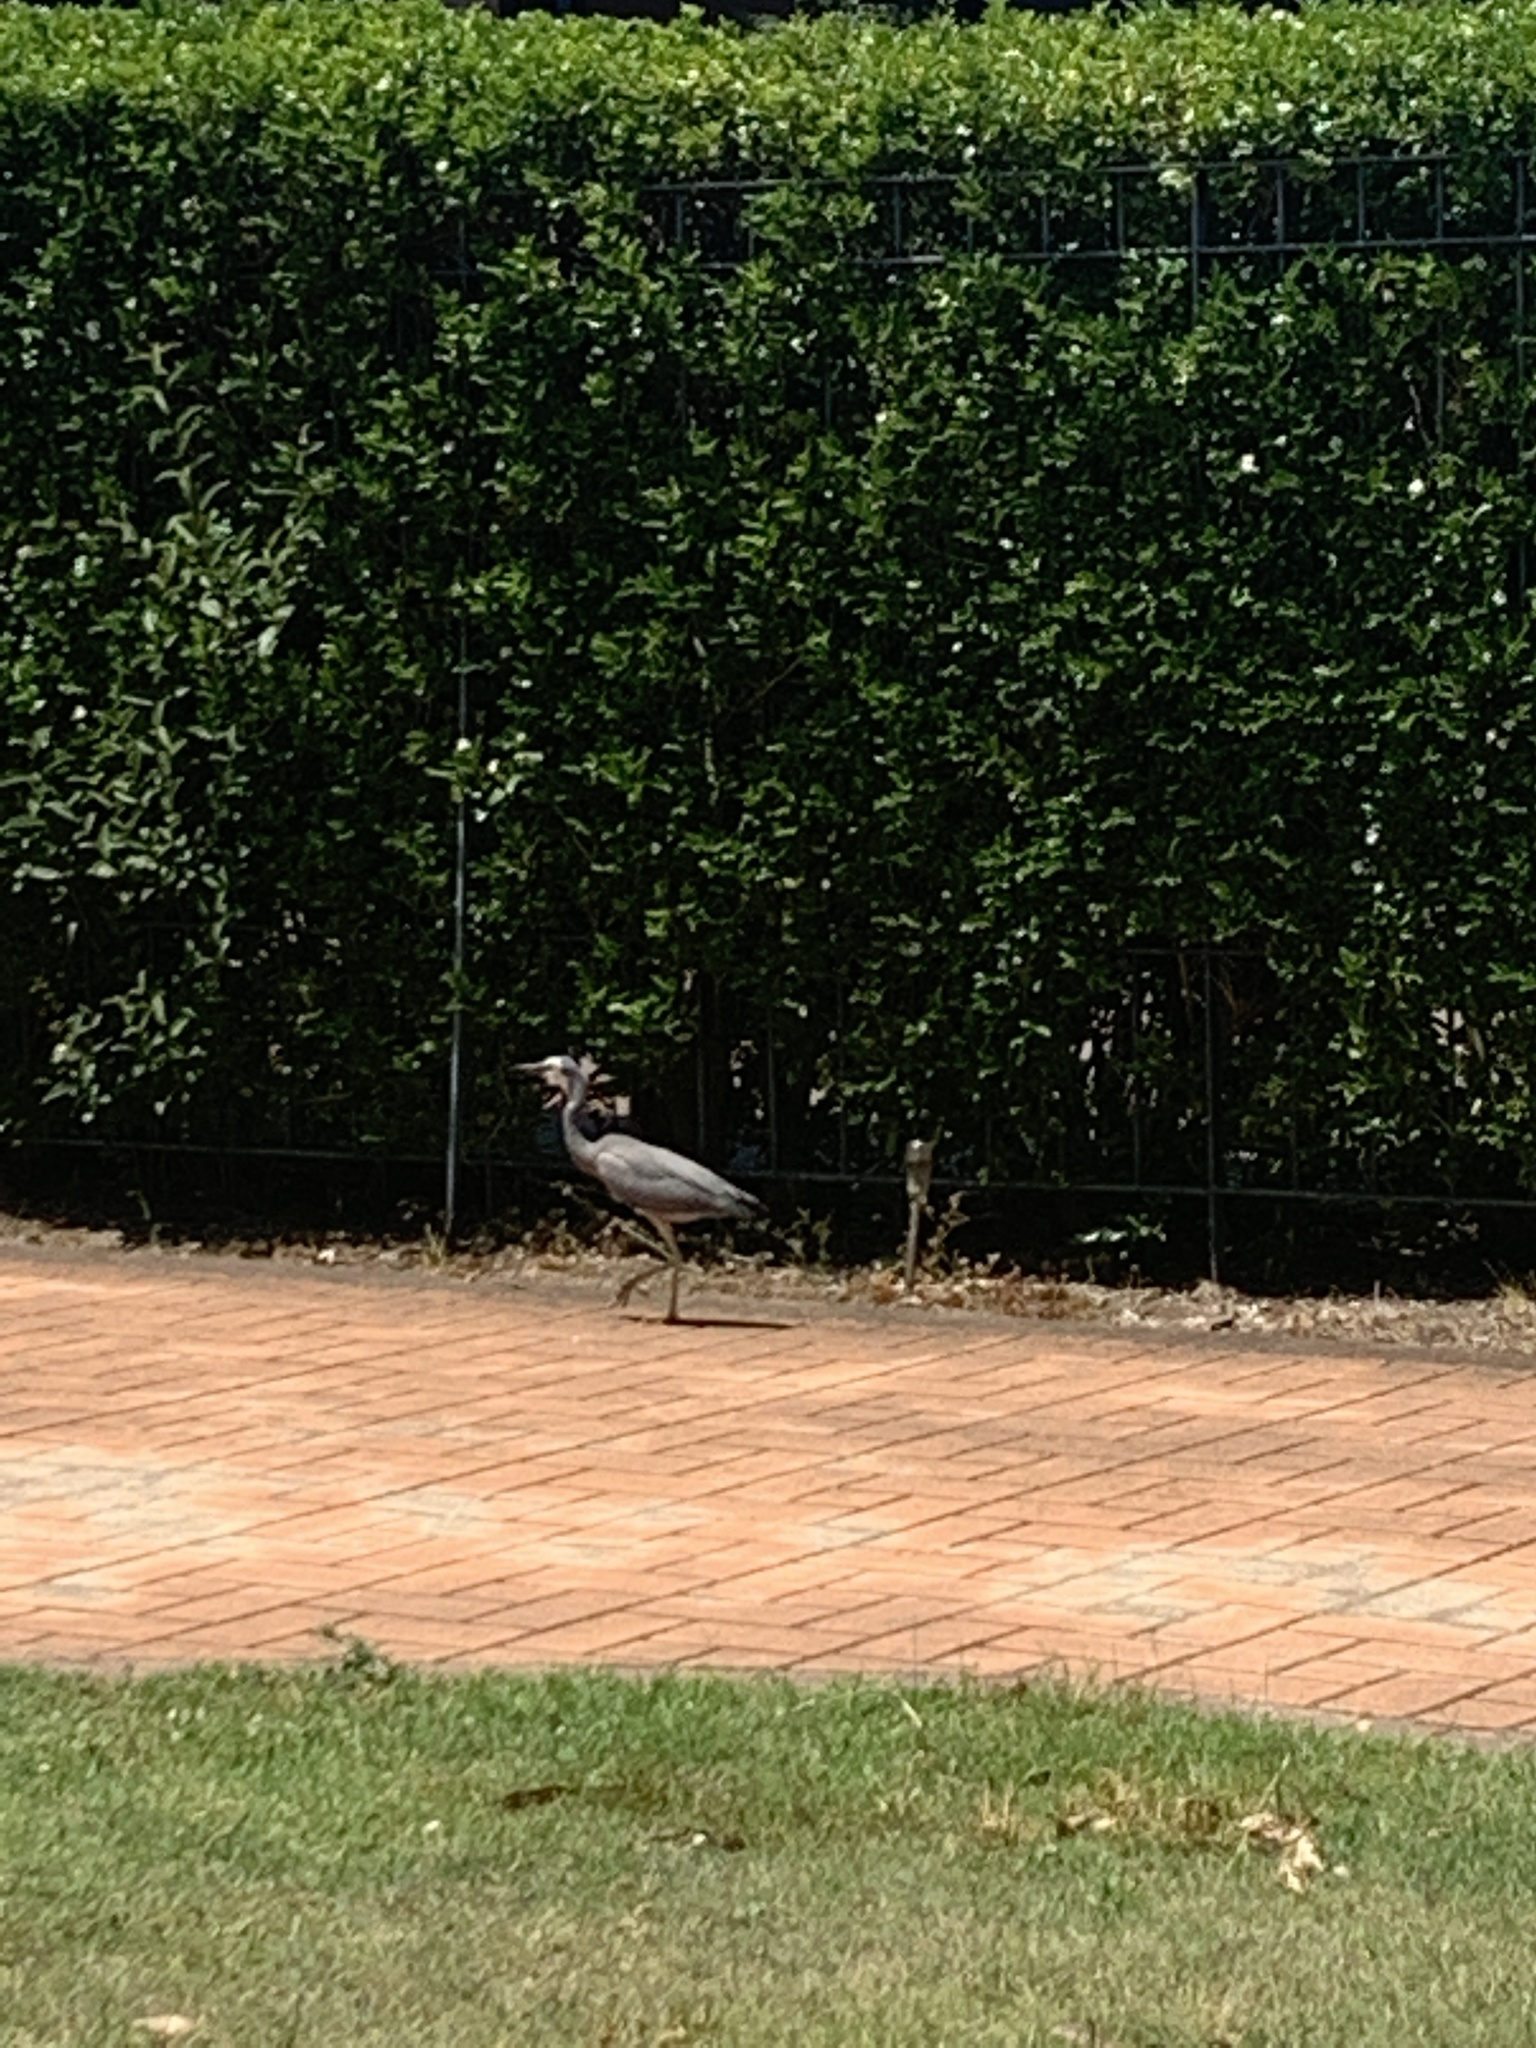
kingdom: Animalia
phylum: Chordata
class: Aves
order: Pelecaniformes
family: Ardeidae
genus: Egretta
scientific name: Egretta novaehollandiae
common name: White-faced heron
